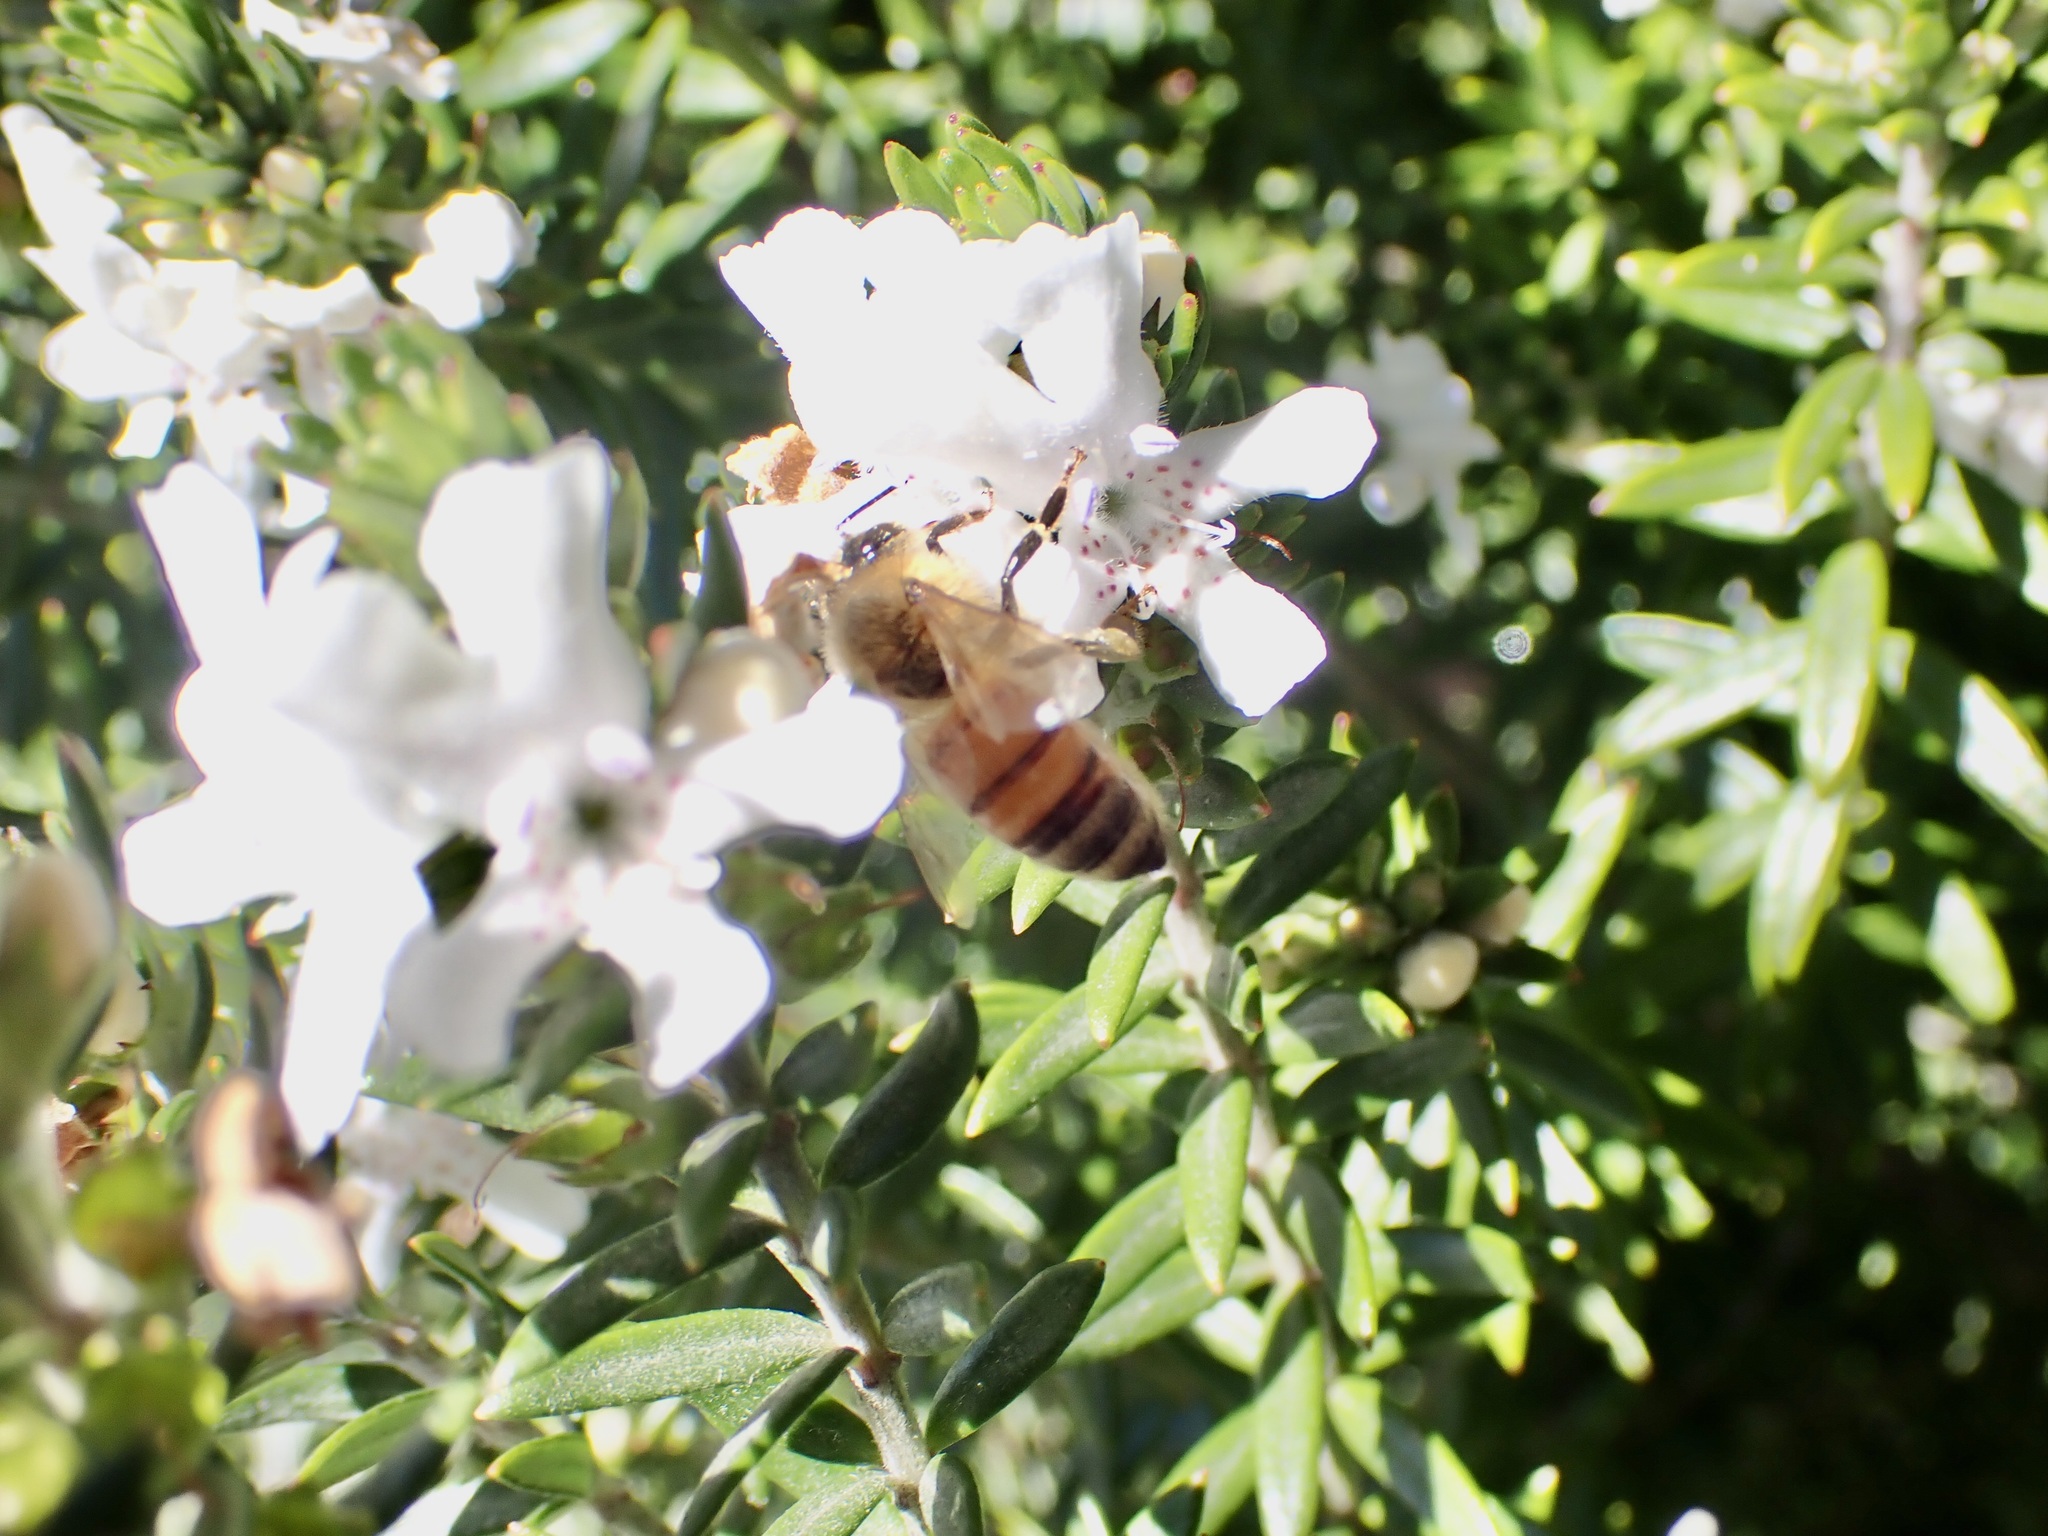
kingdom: Animalia
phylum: Arthropoda
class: Insecta
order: Hymenoptera
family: Apidae
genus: Apis
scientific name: Apis mellifera
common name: Honey bee
